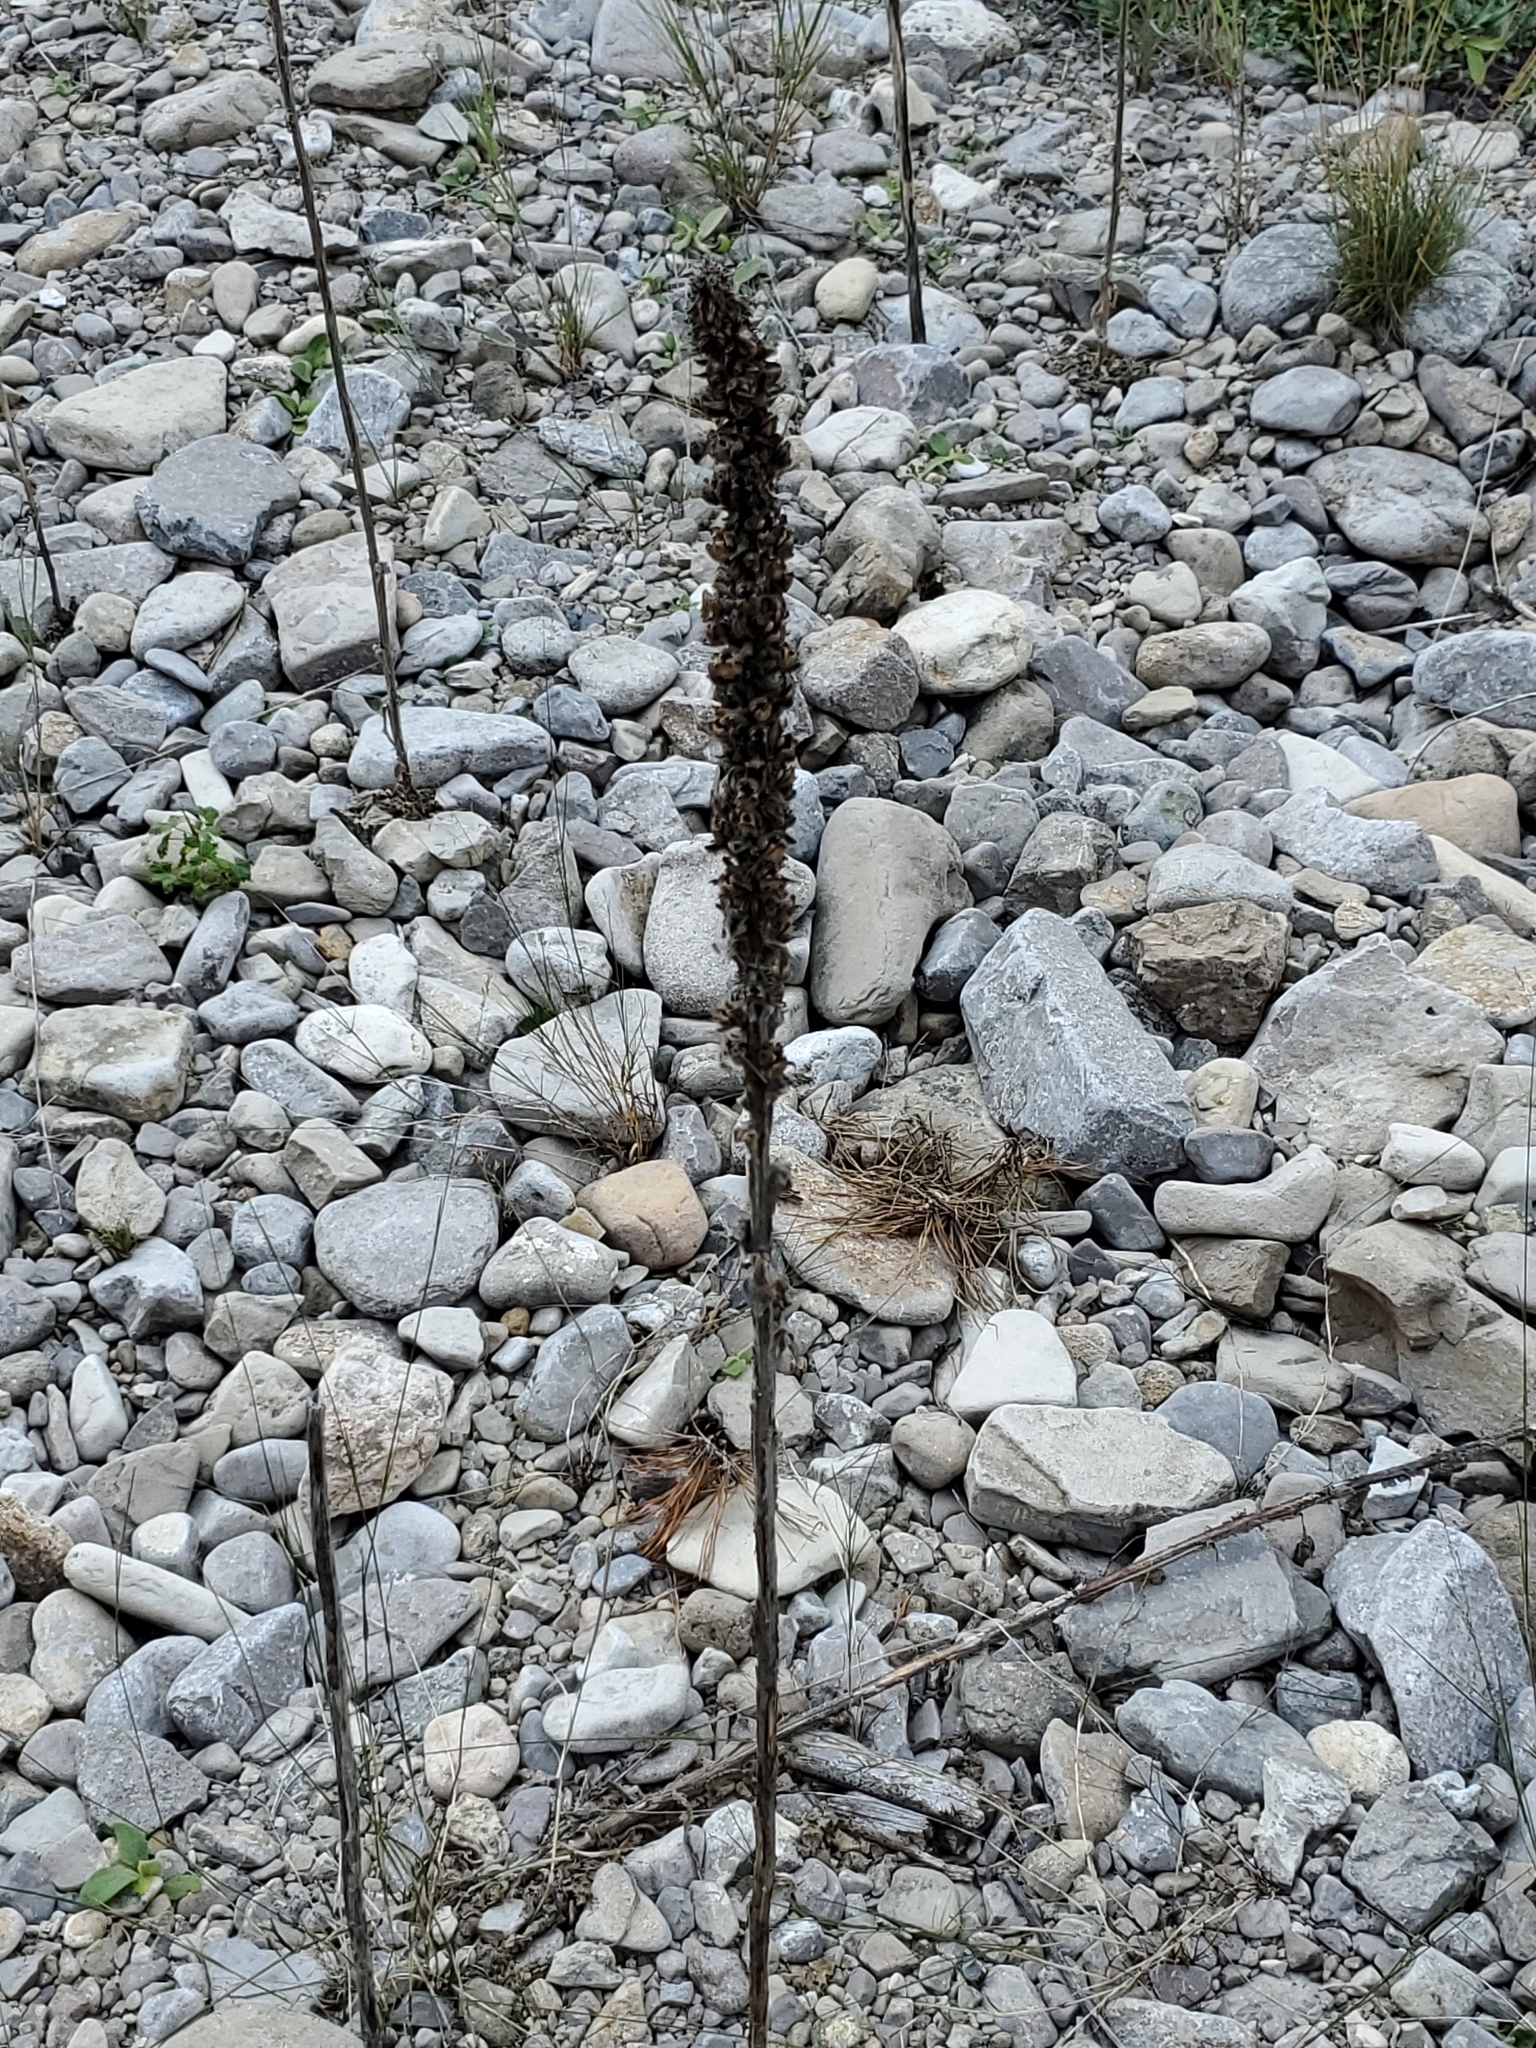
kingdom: Plantae
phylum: Tracheophyta
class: Magnoliopsida
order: Lamiales
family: Scrophulariaceae
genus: Verbascum
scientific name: Verbascum thapsus
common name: Common mullein
